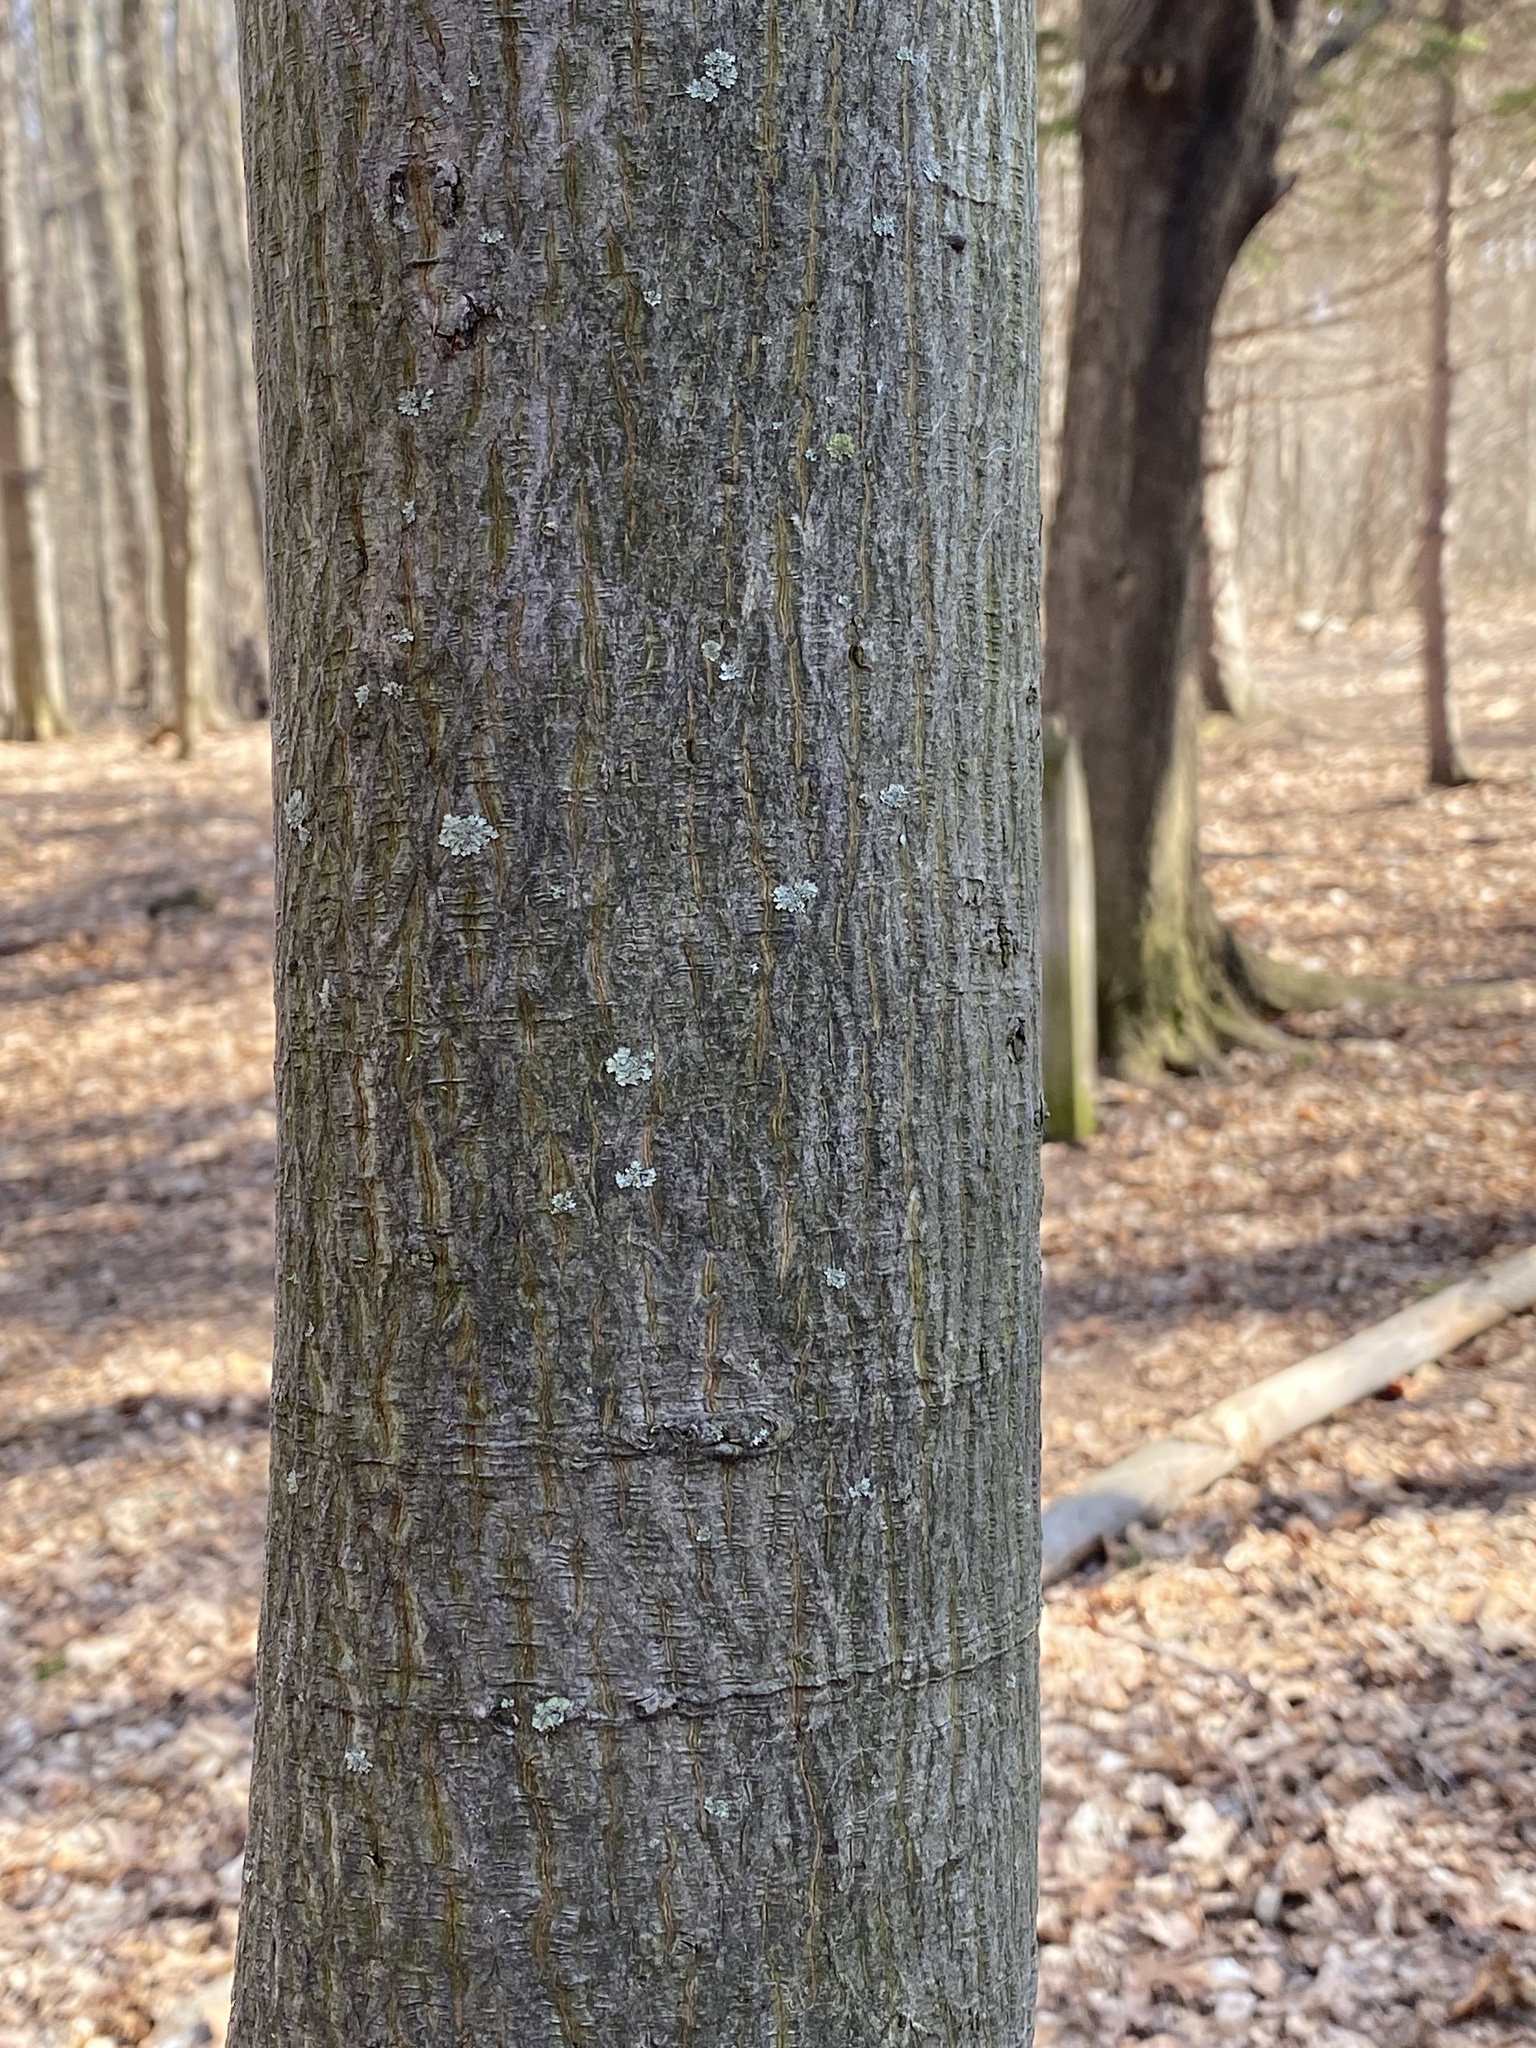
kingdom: Plantae
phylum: Tracheophyta
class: Magnoliopsida
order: Fagales
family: Juglandaceae
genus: Carya
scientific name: Carya cordiformis
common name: Bitternut hickory
